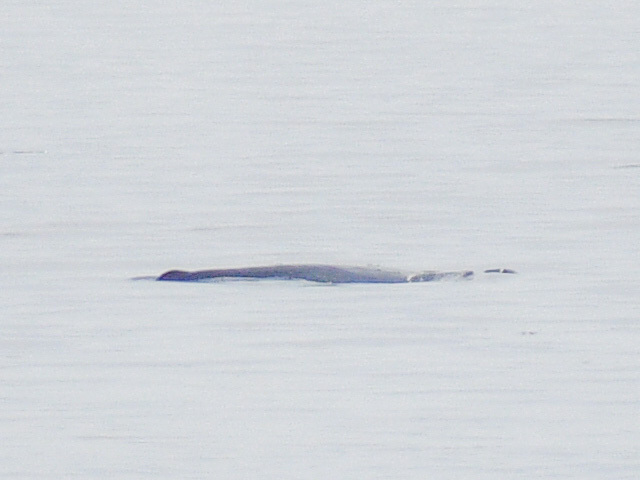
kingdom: Animalia
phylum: Chordata
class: Mammalia
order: Cetacea
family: Balaenopteridae
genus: Megaptera
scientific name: Megaptera novaeangliae
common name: Humpback whale
